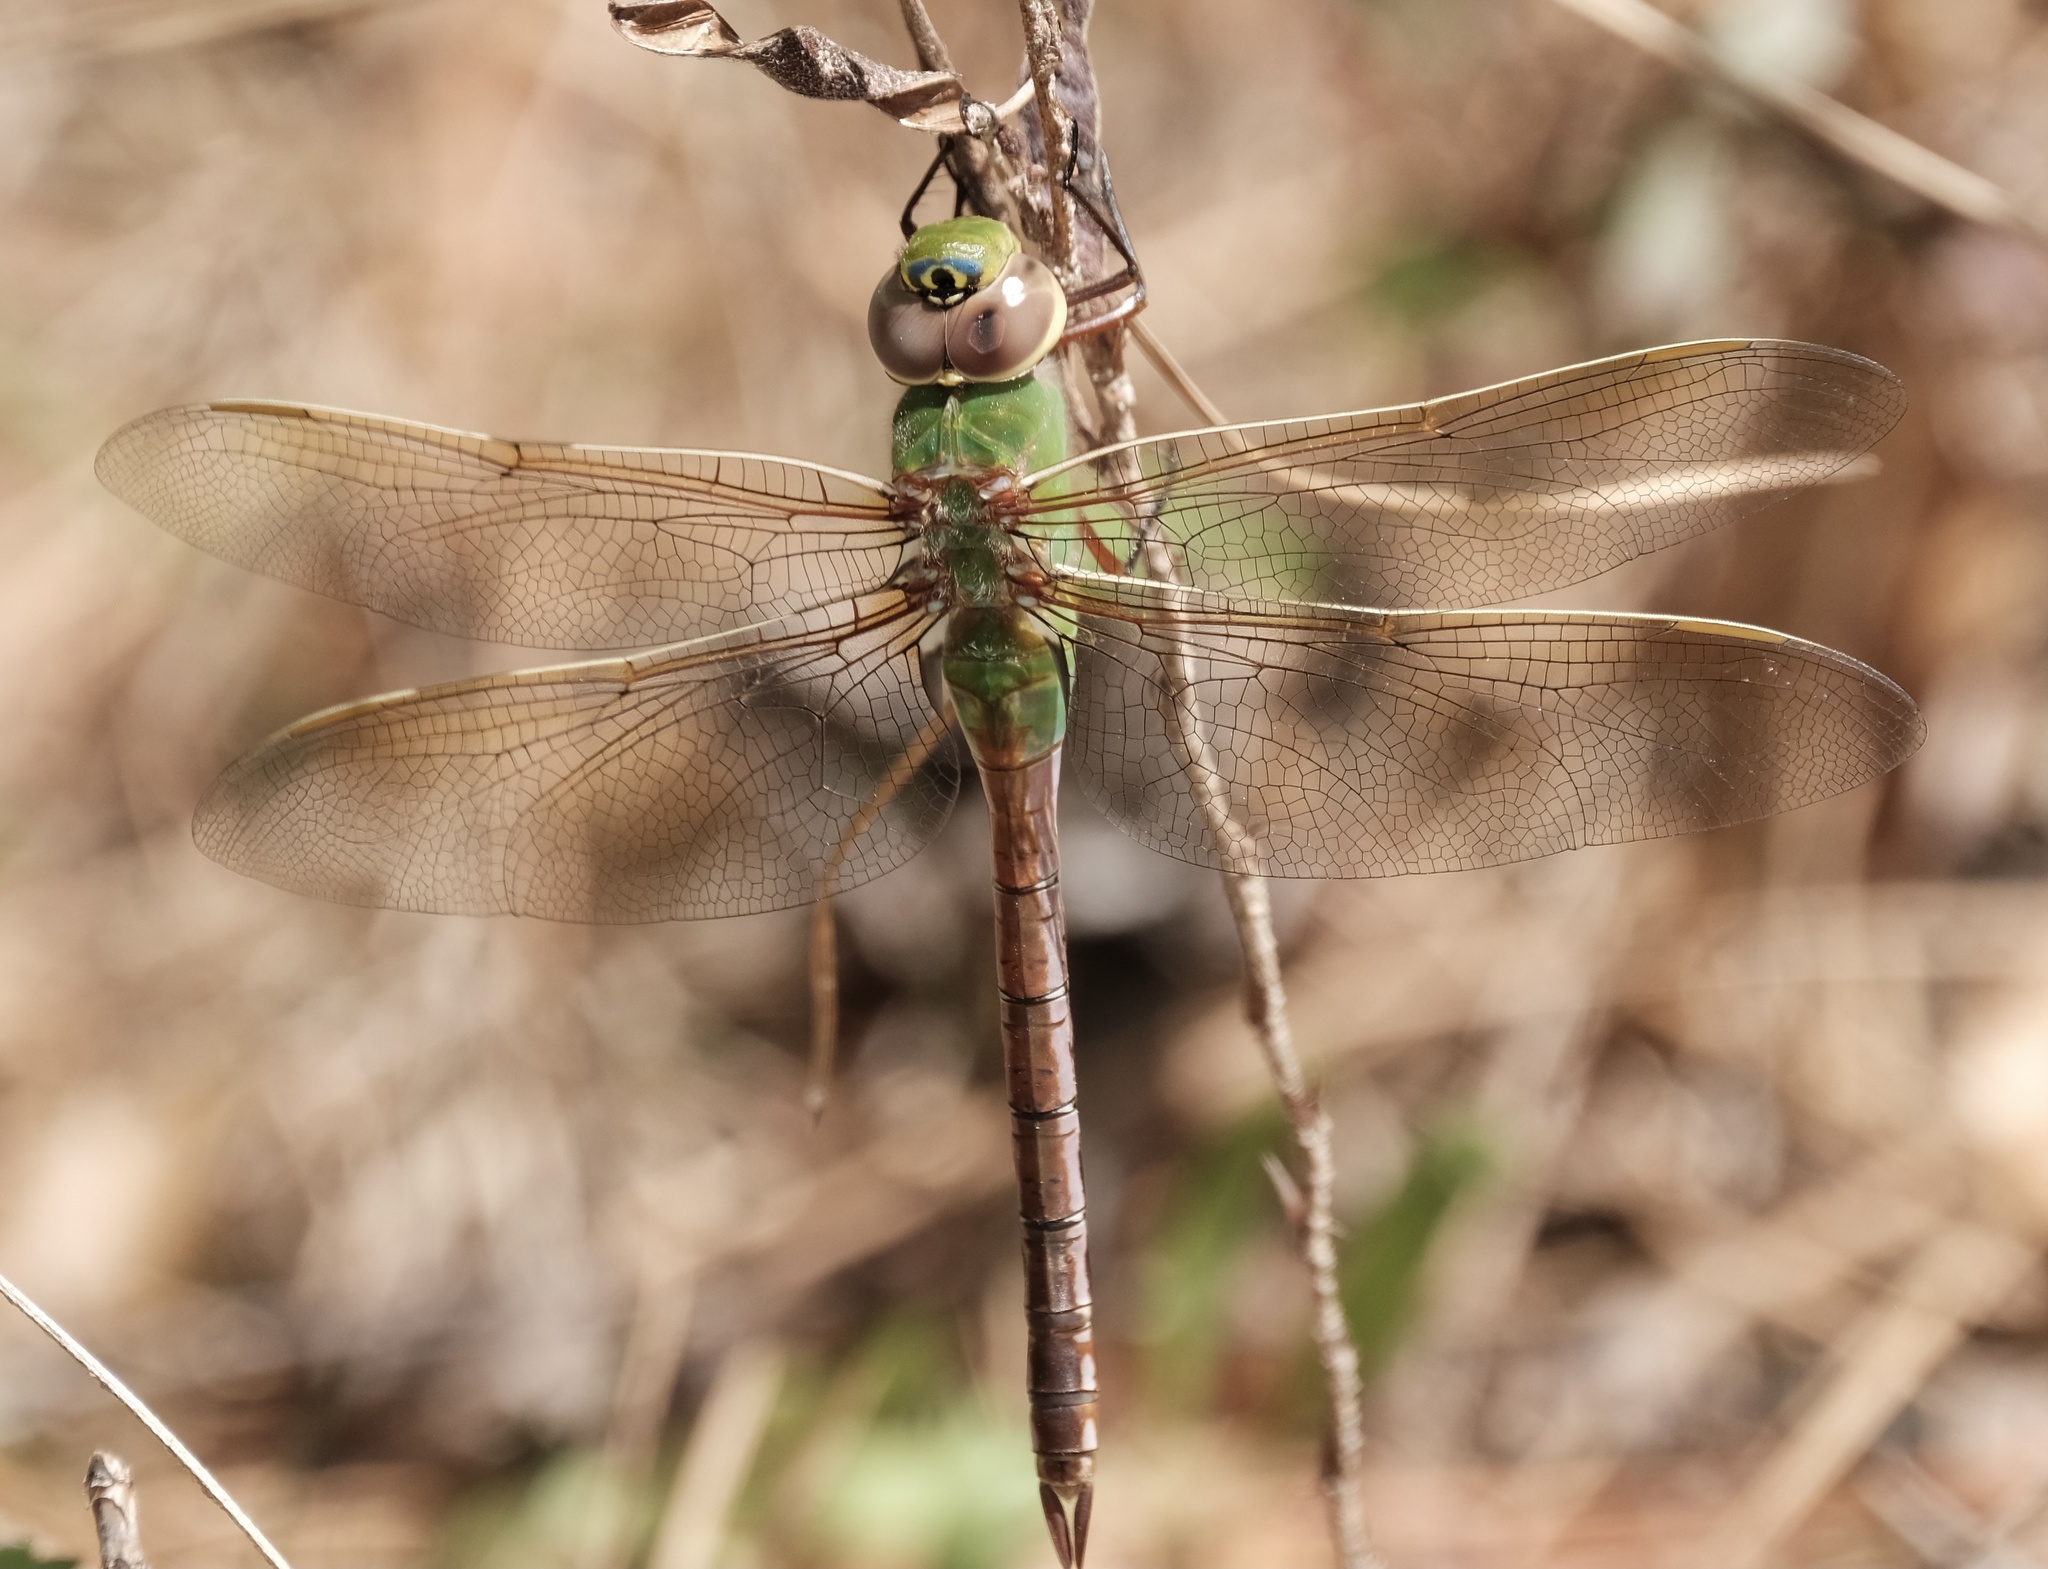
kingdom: Animalia
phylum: Arthropoda
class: Insecta
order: Odonata
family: Aeshnidae
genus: Anax
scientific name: Anax junius
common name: Common green darner
